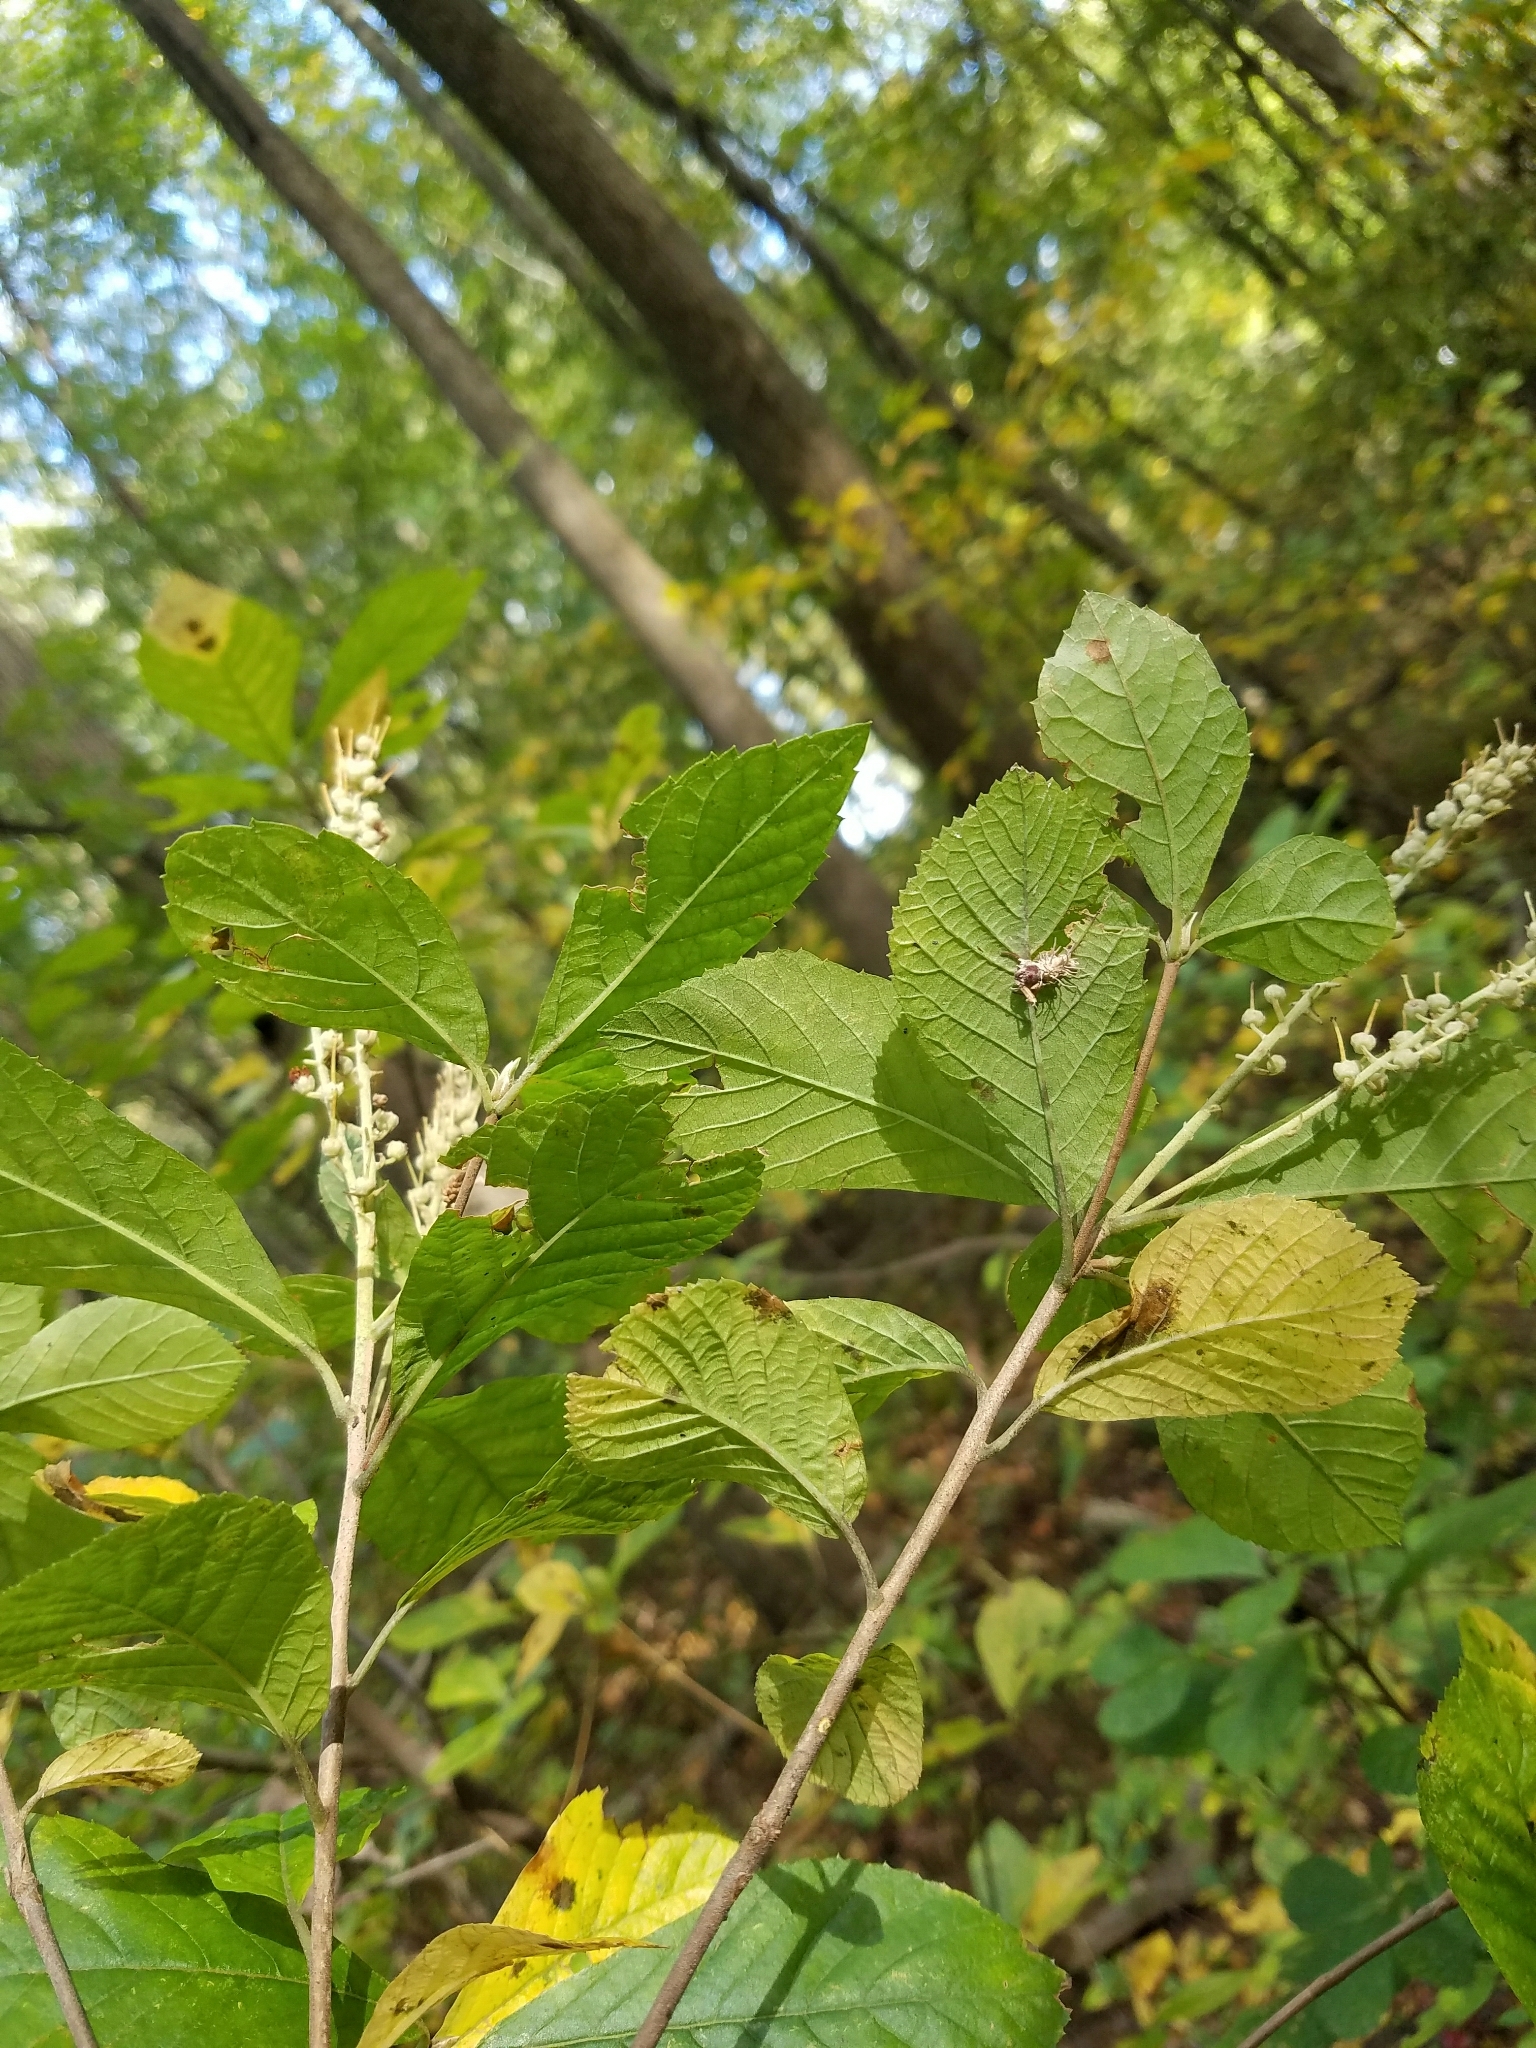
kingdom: Plantae
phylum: Tracheophyta
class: Magnoliopsida
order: Ericales
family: Clethraceae
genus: Clethra
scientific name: Clethra alnifolia
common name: Sweet pepperbush
